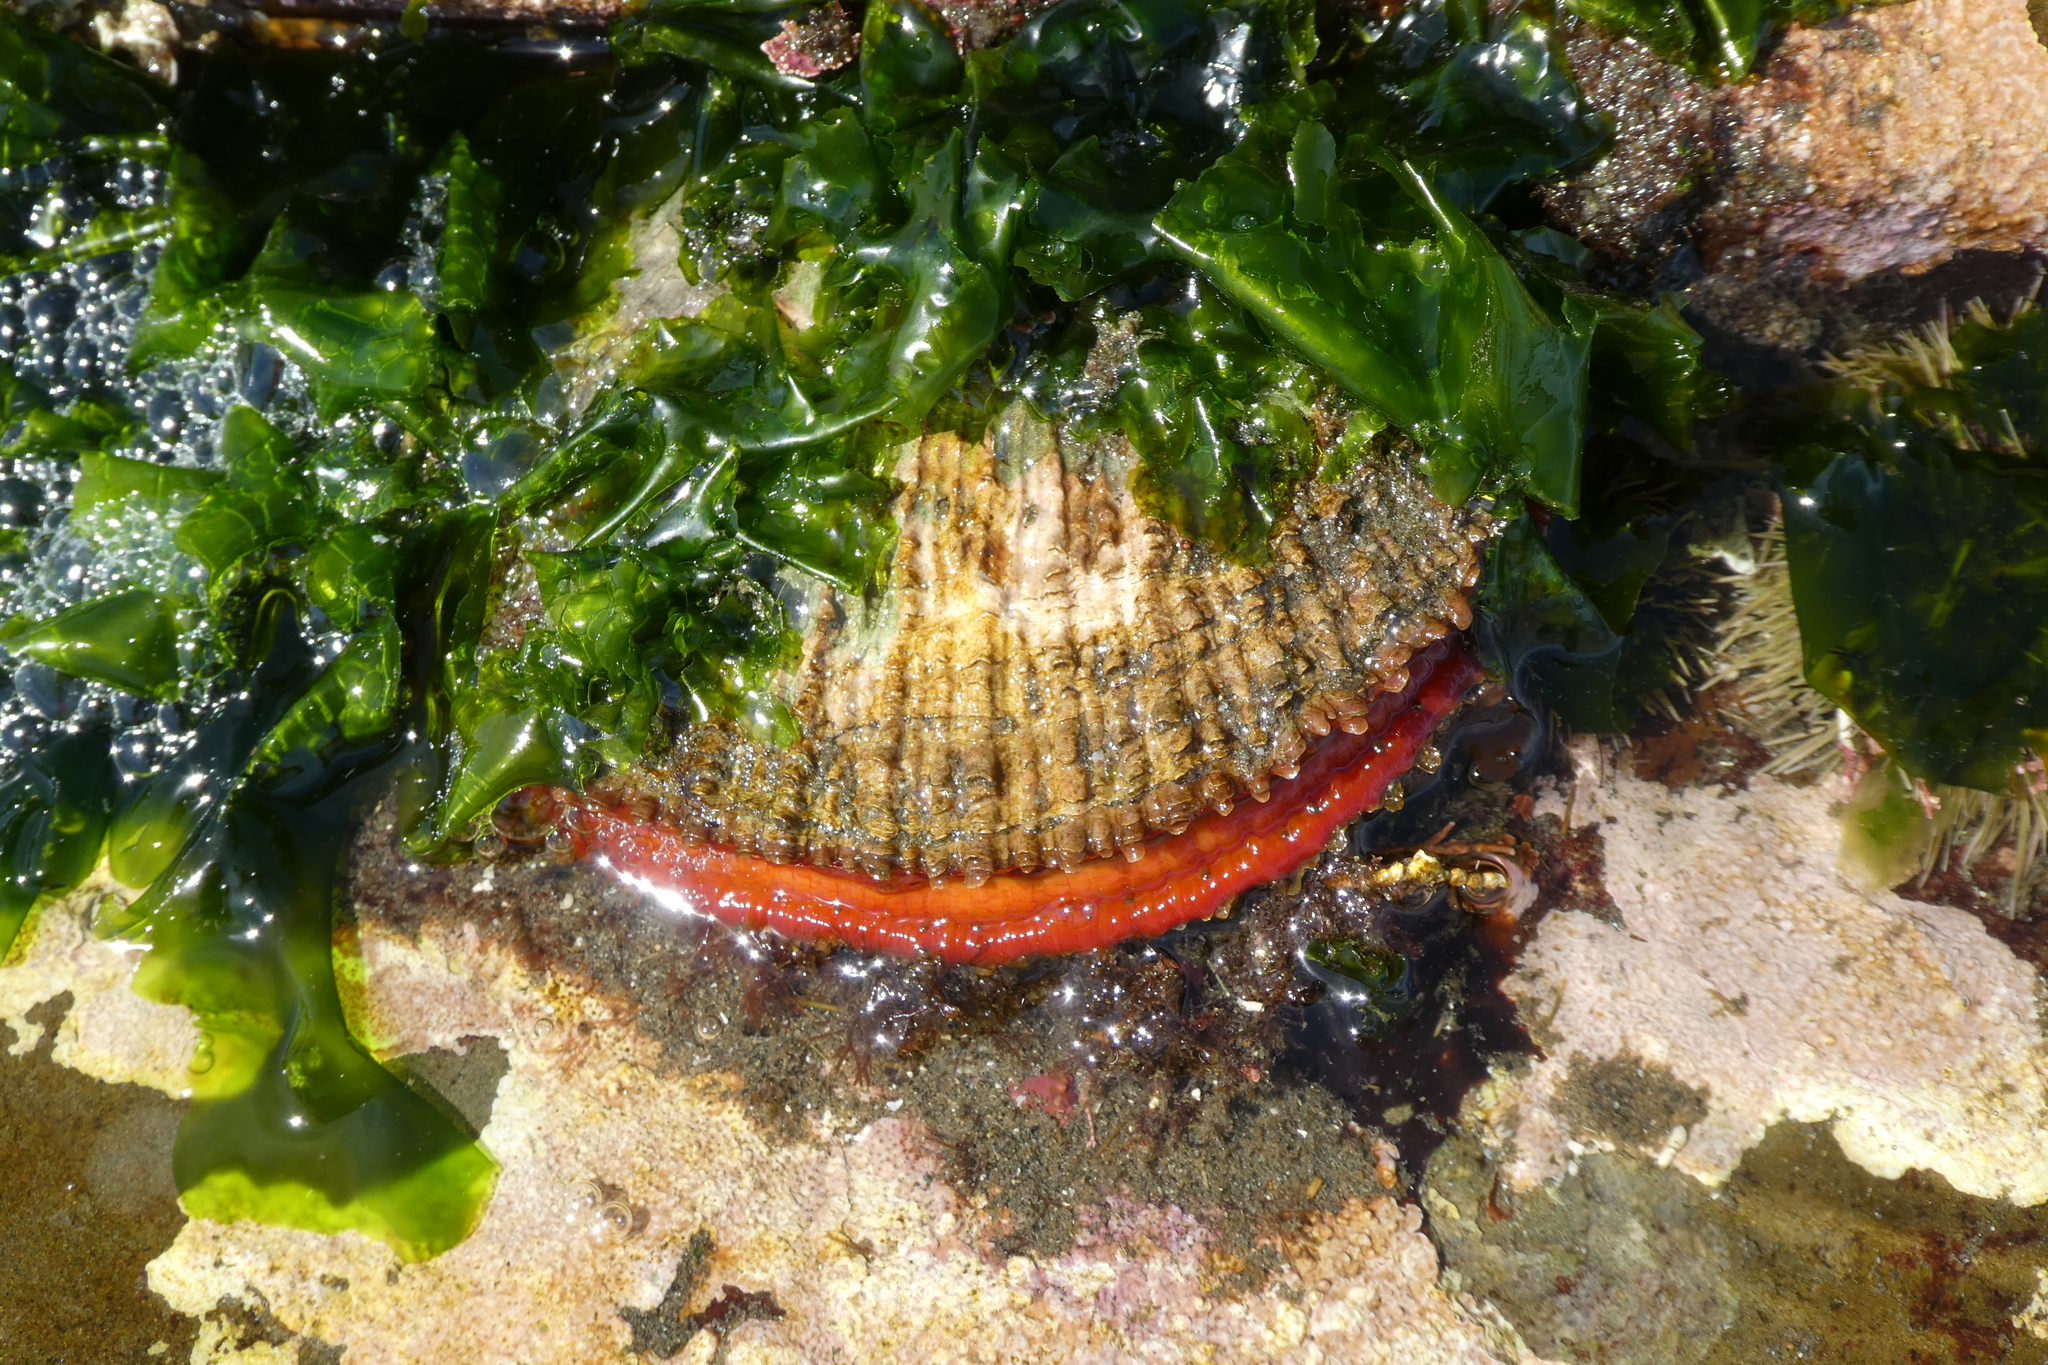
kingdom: Animalia
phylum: Mollusca
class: Bivalvia
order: Pectinida
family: Pectinidae
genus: Crassadoma
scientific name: Crassadoma gigantea
